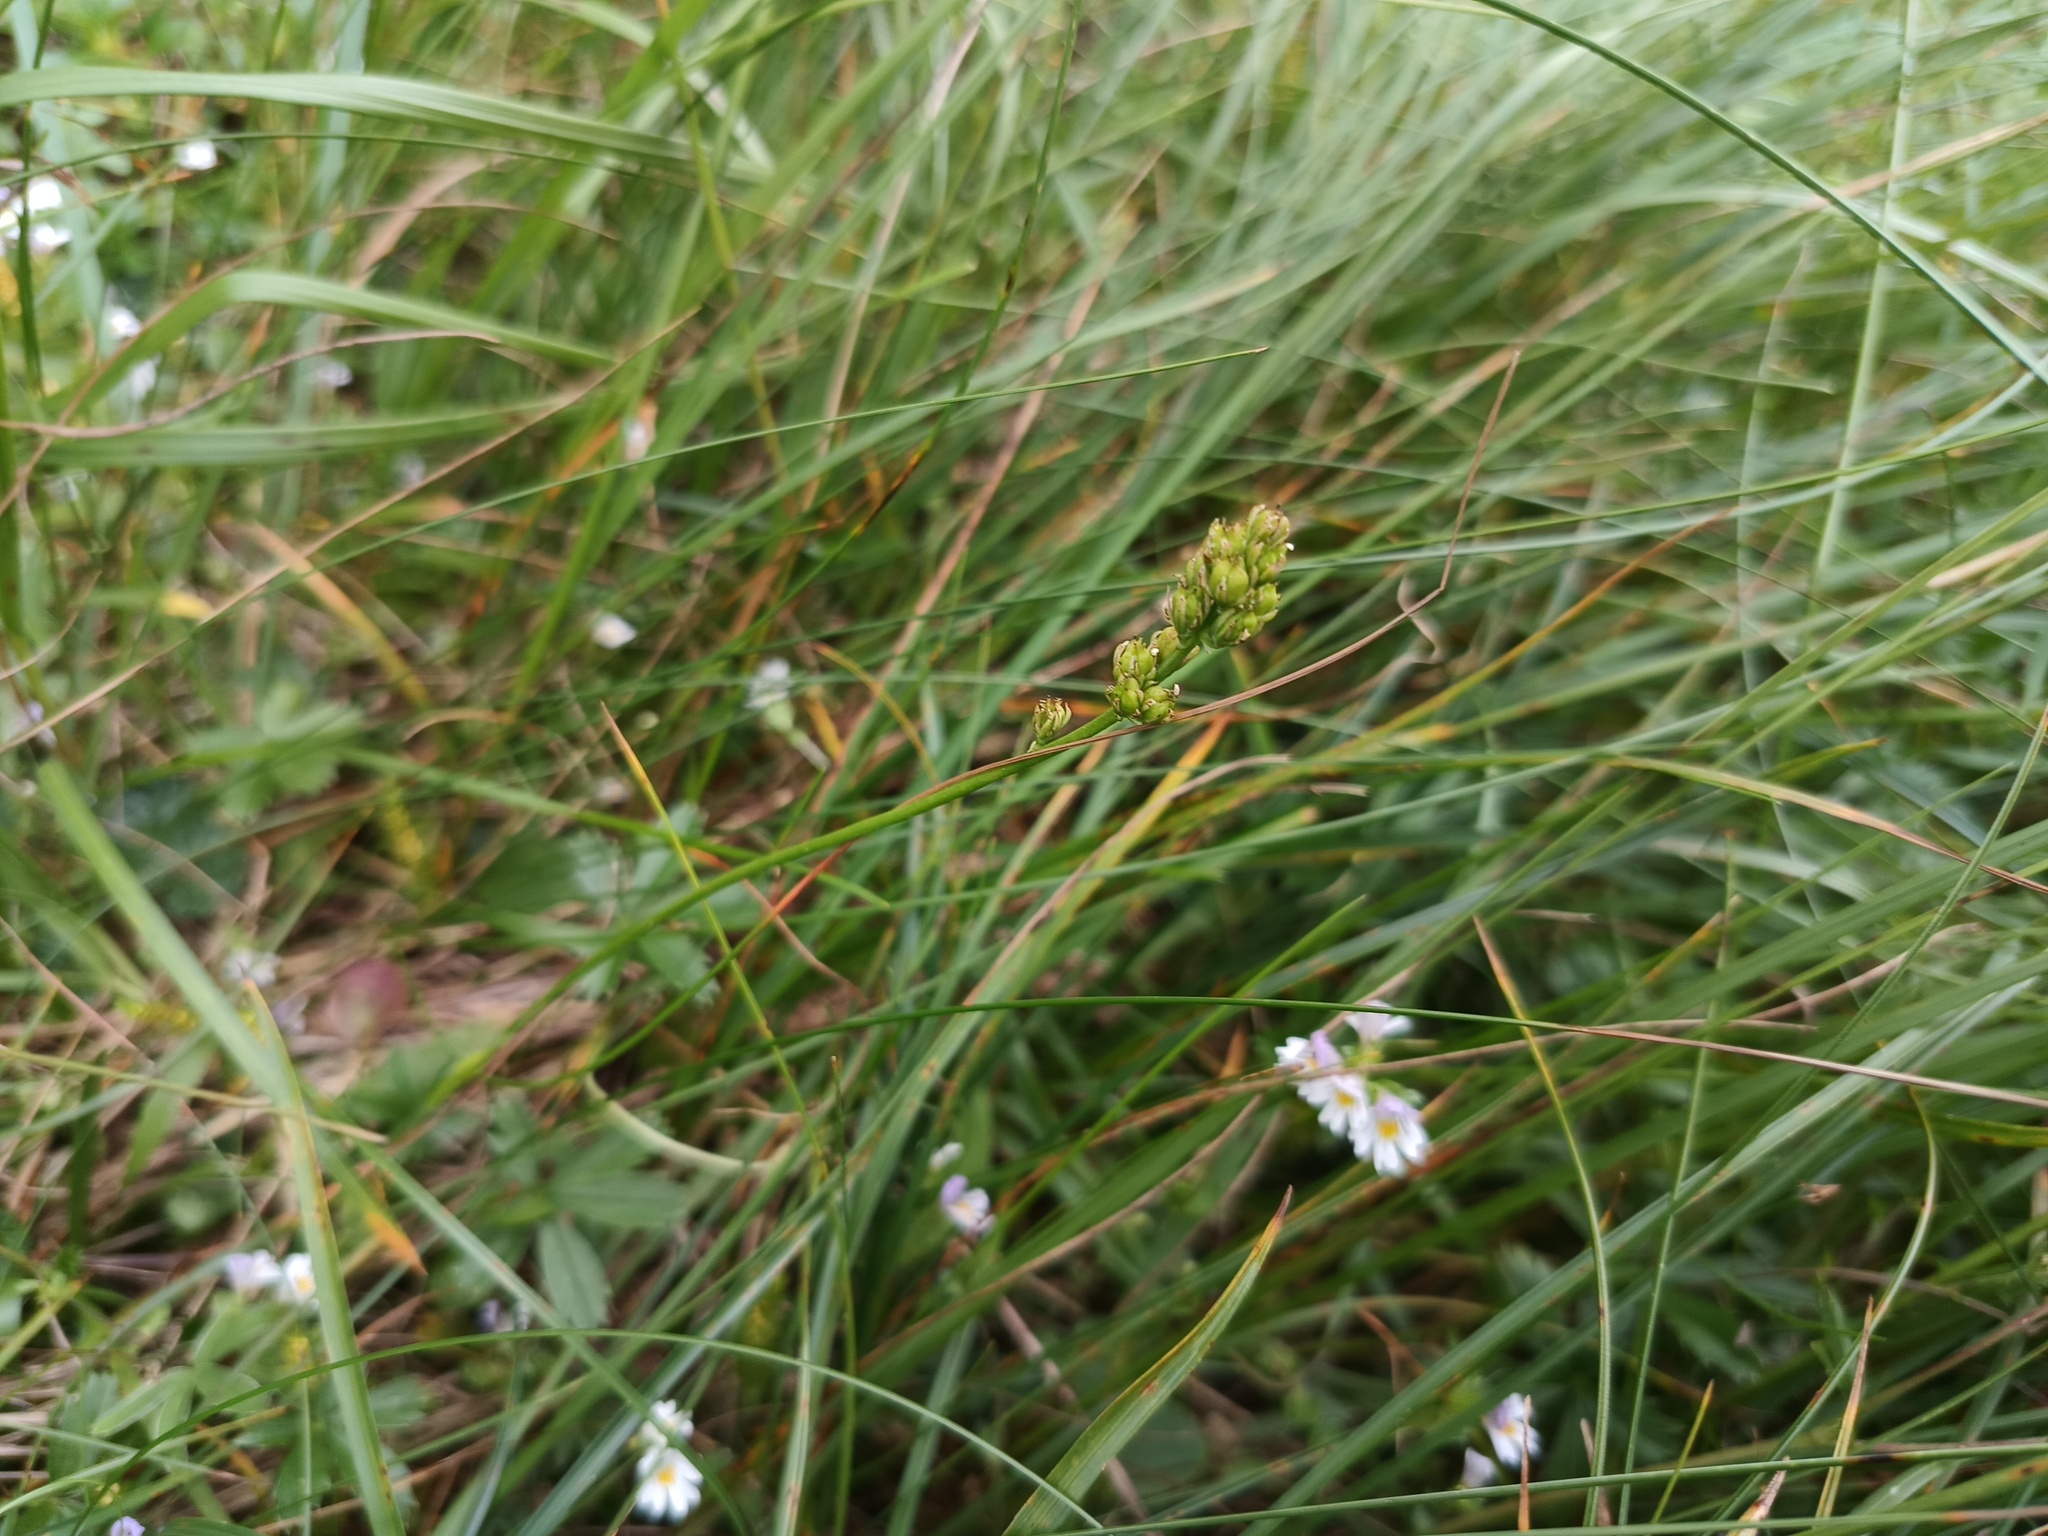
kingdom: Plantae
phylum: Tracheophyta
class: Liliopsida
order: Alismatales
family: Tofieldiaceae
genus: Tofieldia
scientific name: Tofieldia calyculata
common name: German-asphodel
